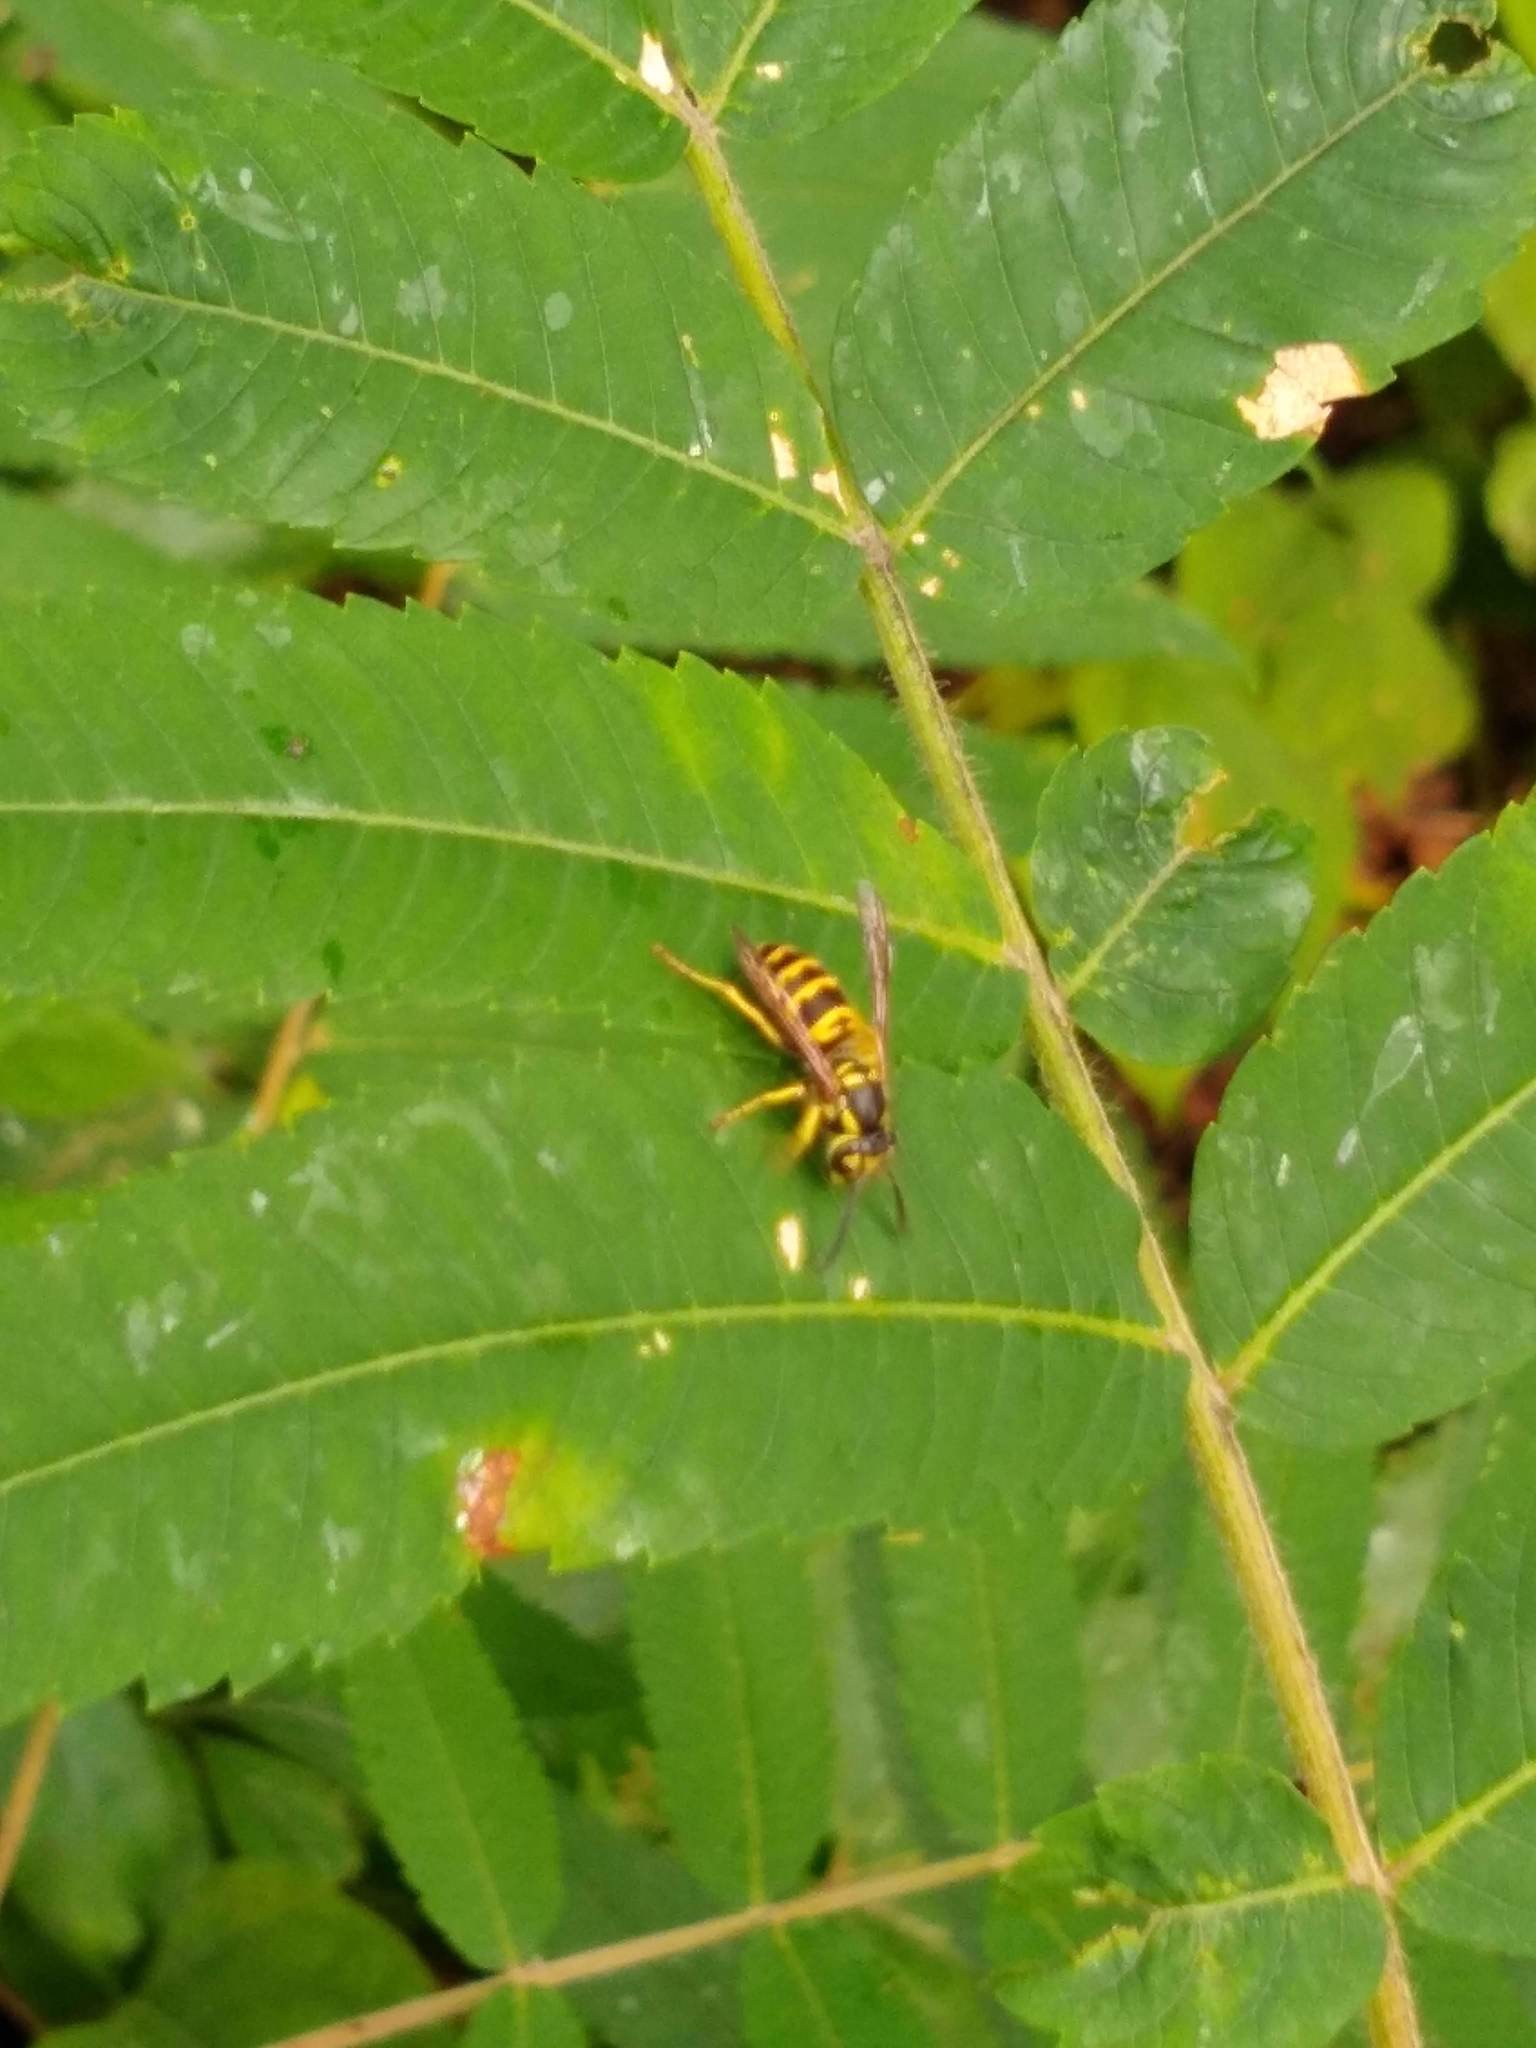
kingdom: Animalia
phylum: Arthropoda
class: Insecta
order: Hymenoptera
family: Vespidae
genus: Vespula
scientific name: Vespula maculifrons
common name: Eastern yellowjacket
